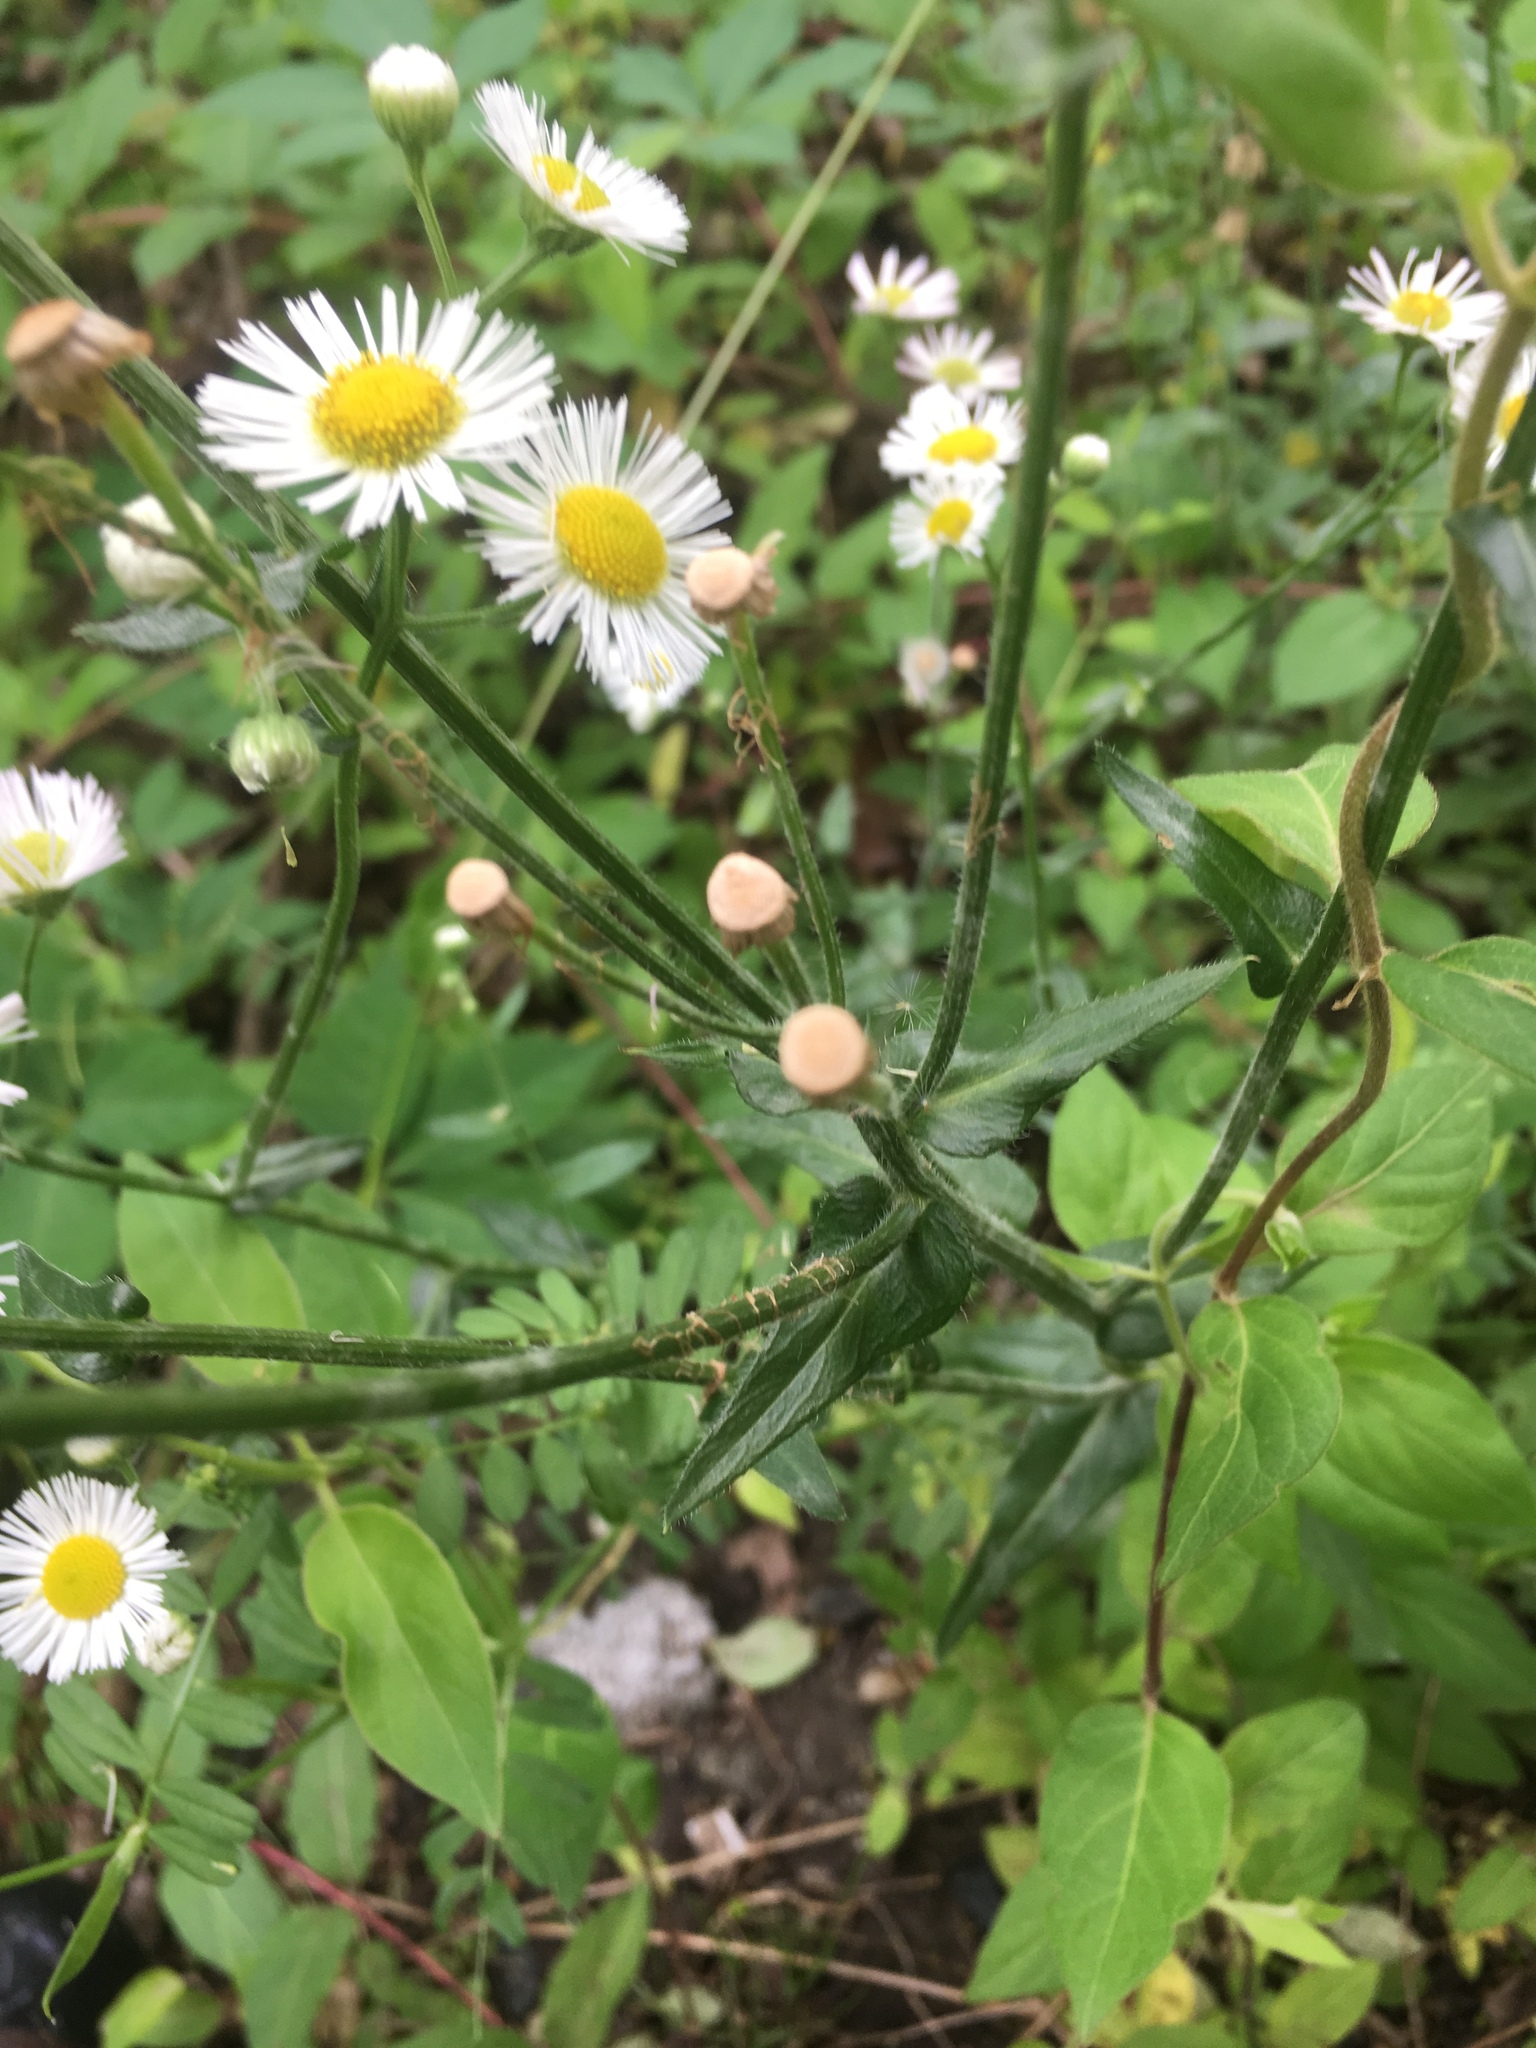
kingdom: Plantae
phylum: Tracheophyta
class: Magnoliopsida
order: Asterales
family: Asteraceae
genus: Erigeron
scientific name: Erigeron annuus
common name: Tall fleabane
